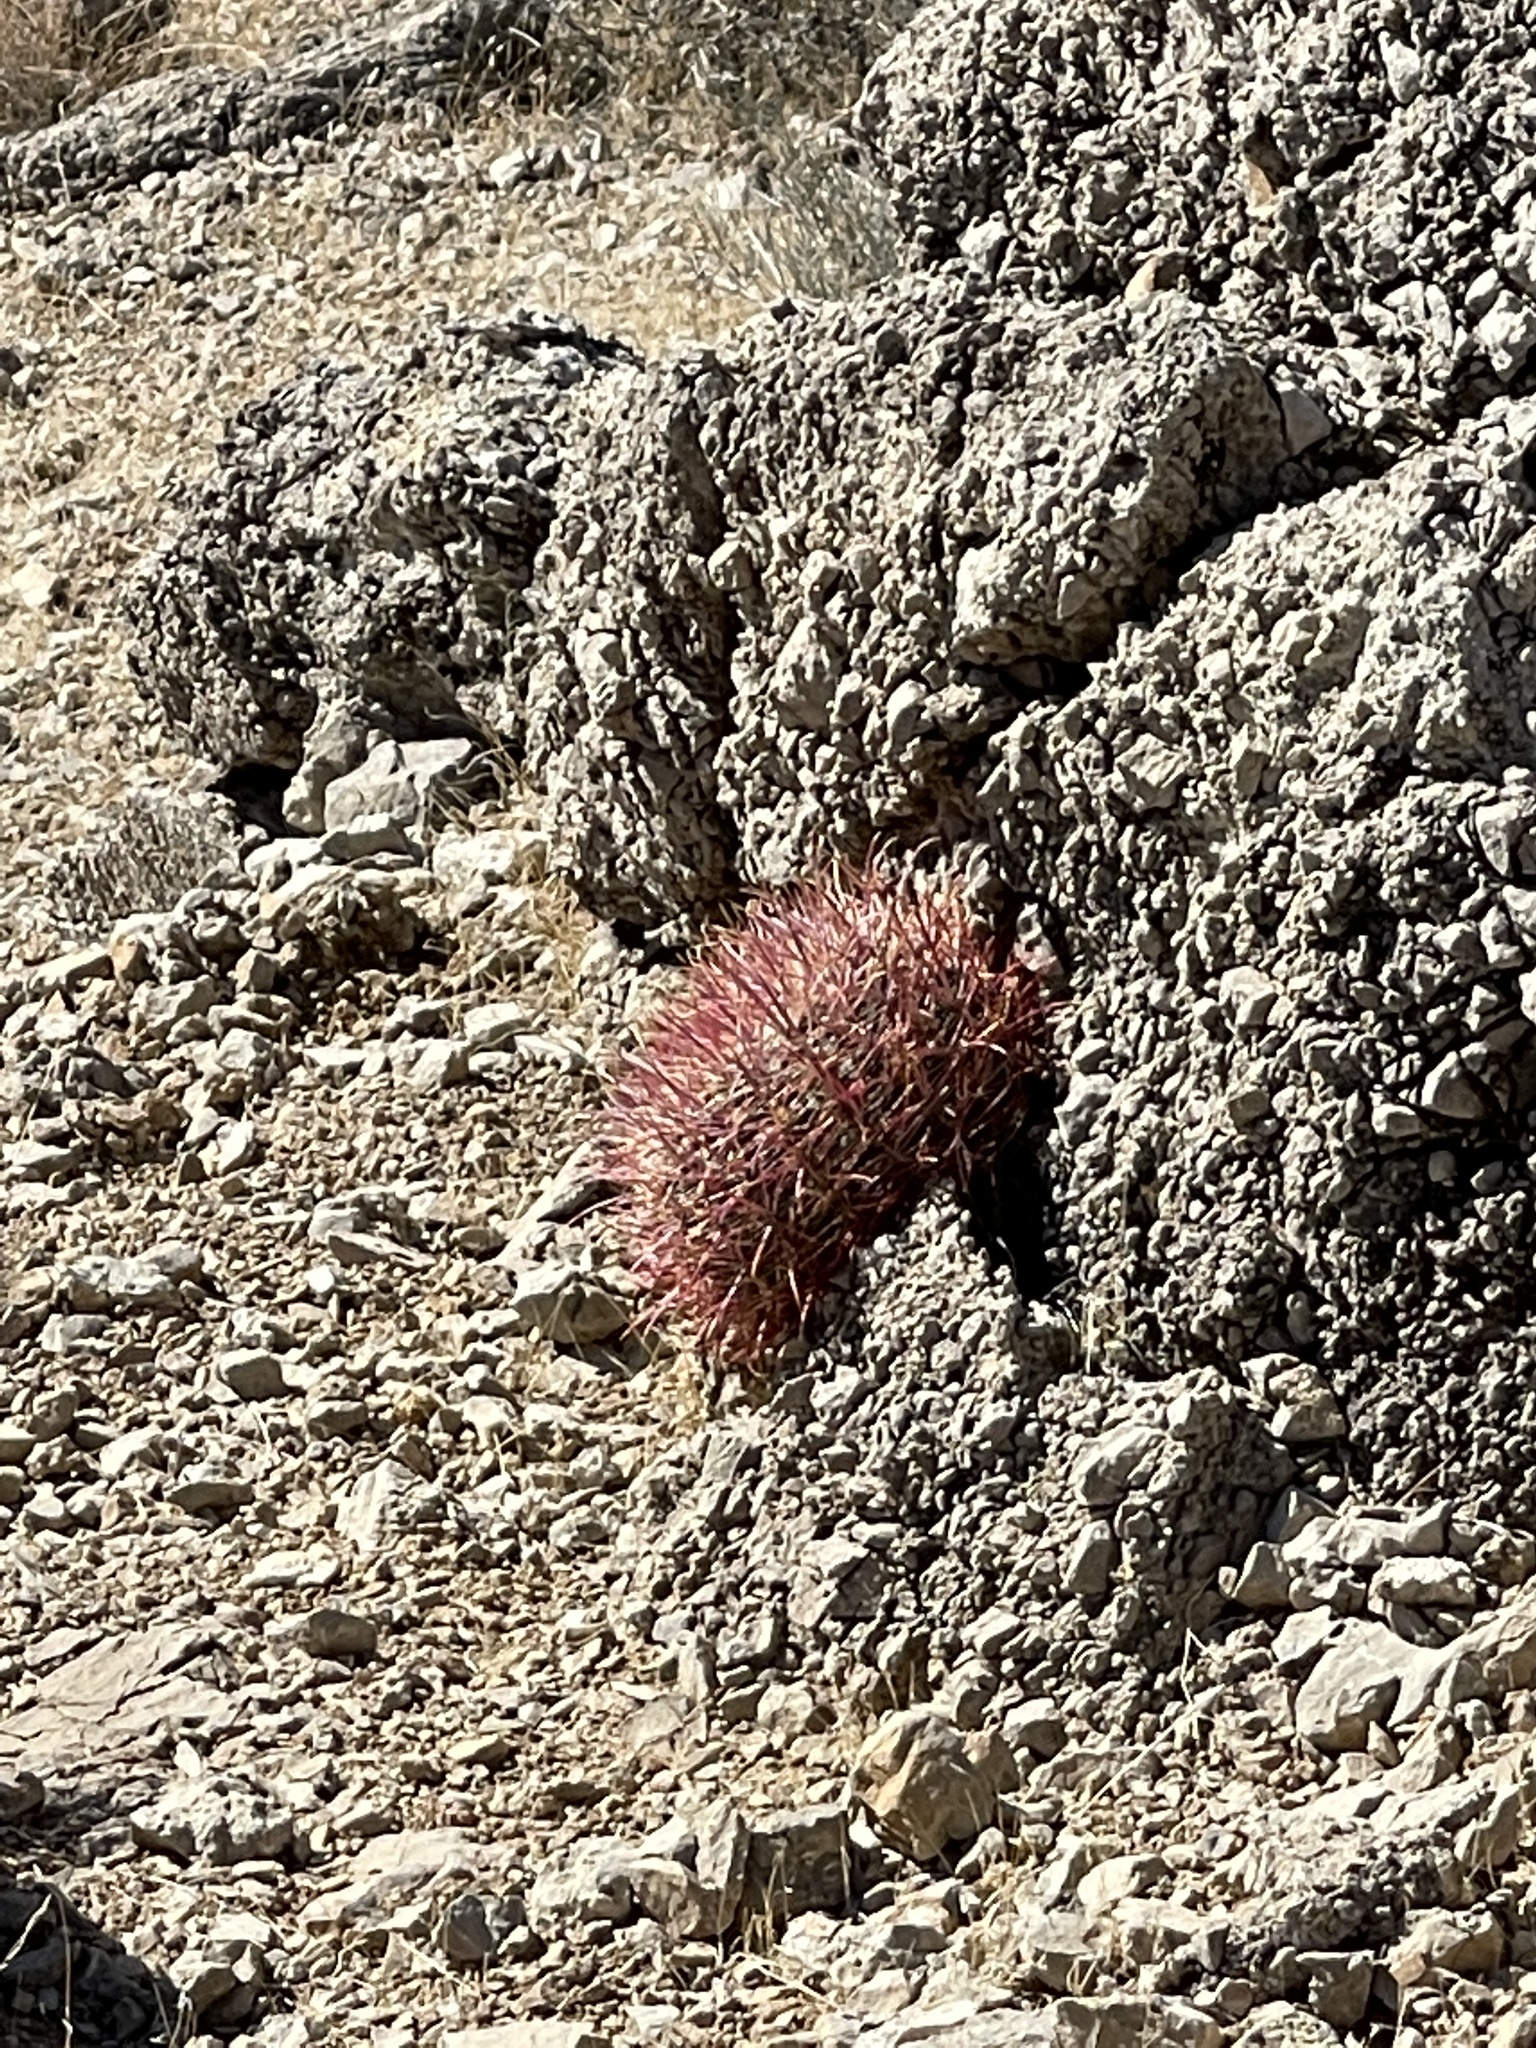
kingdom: Plantae
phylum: Tracheophyta
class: Magnoliopsida
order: Caryophyllales
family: Cactaceae
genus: Ferocactus
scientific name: Ferocactus cylindraceus
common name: California barrel cactus
